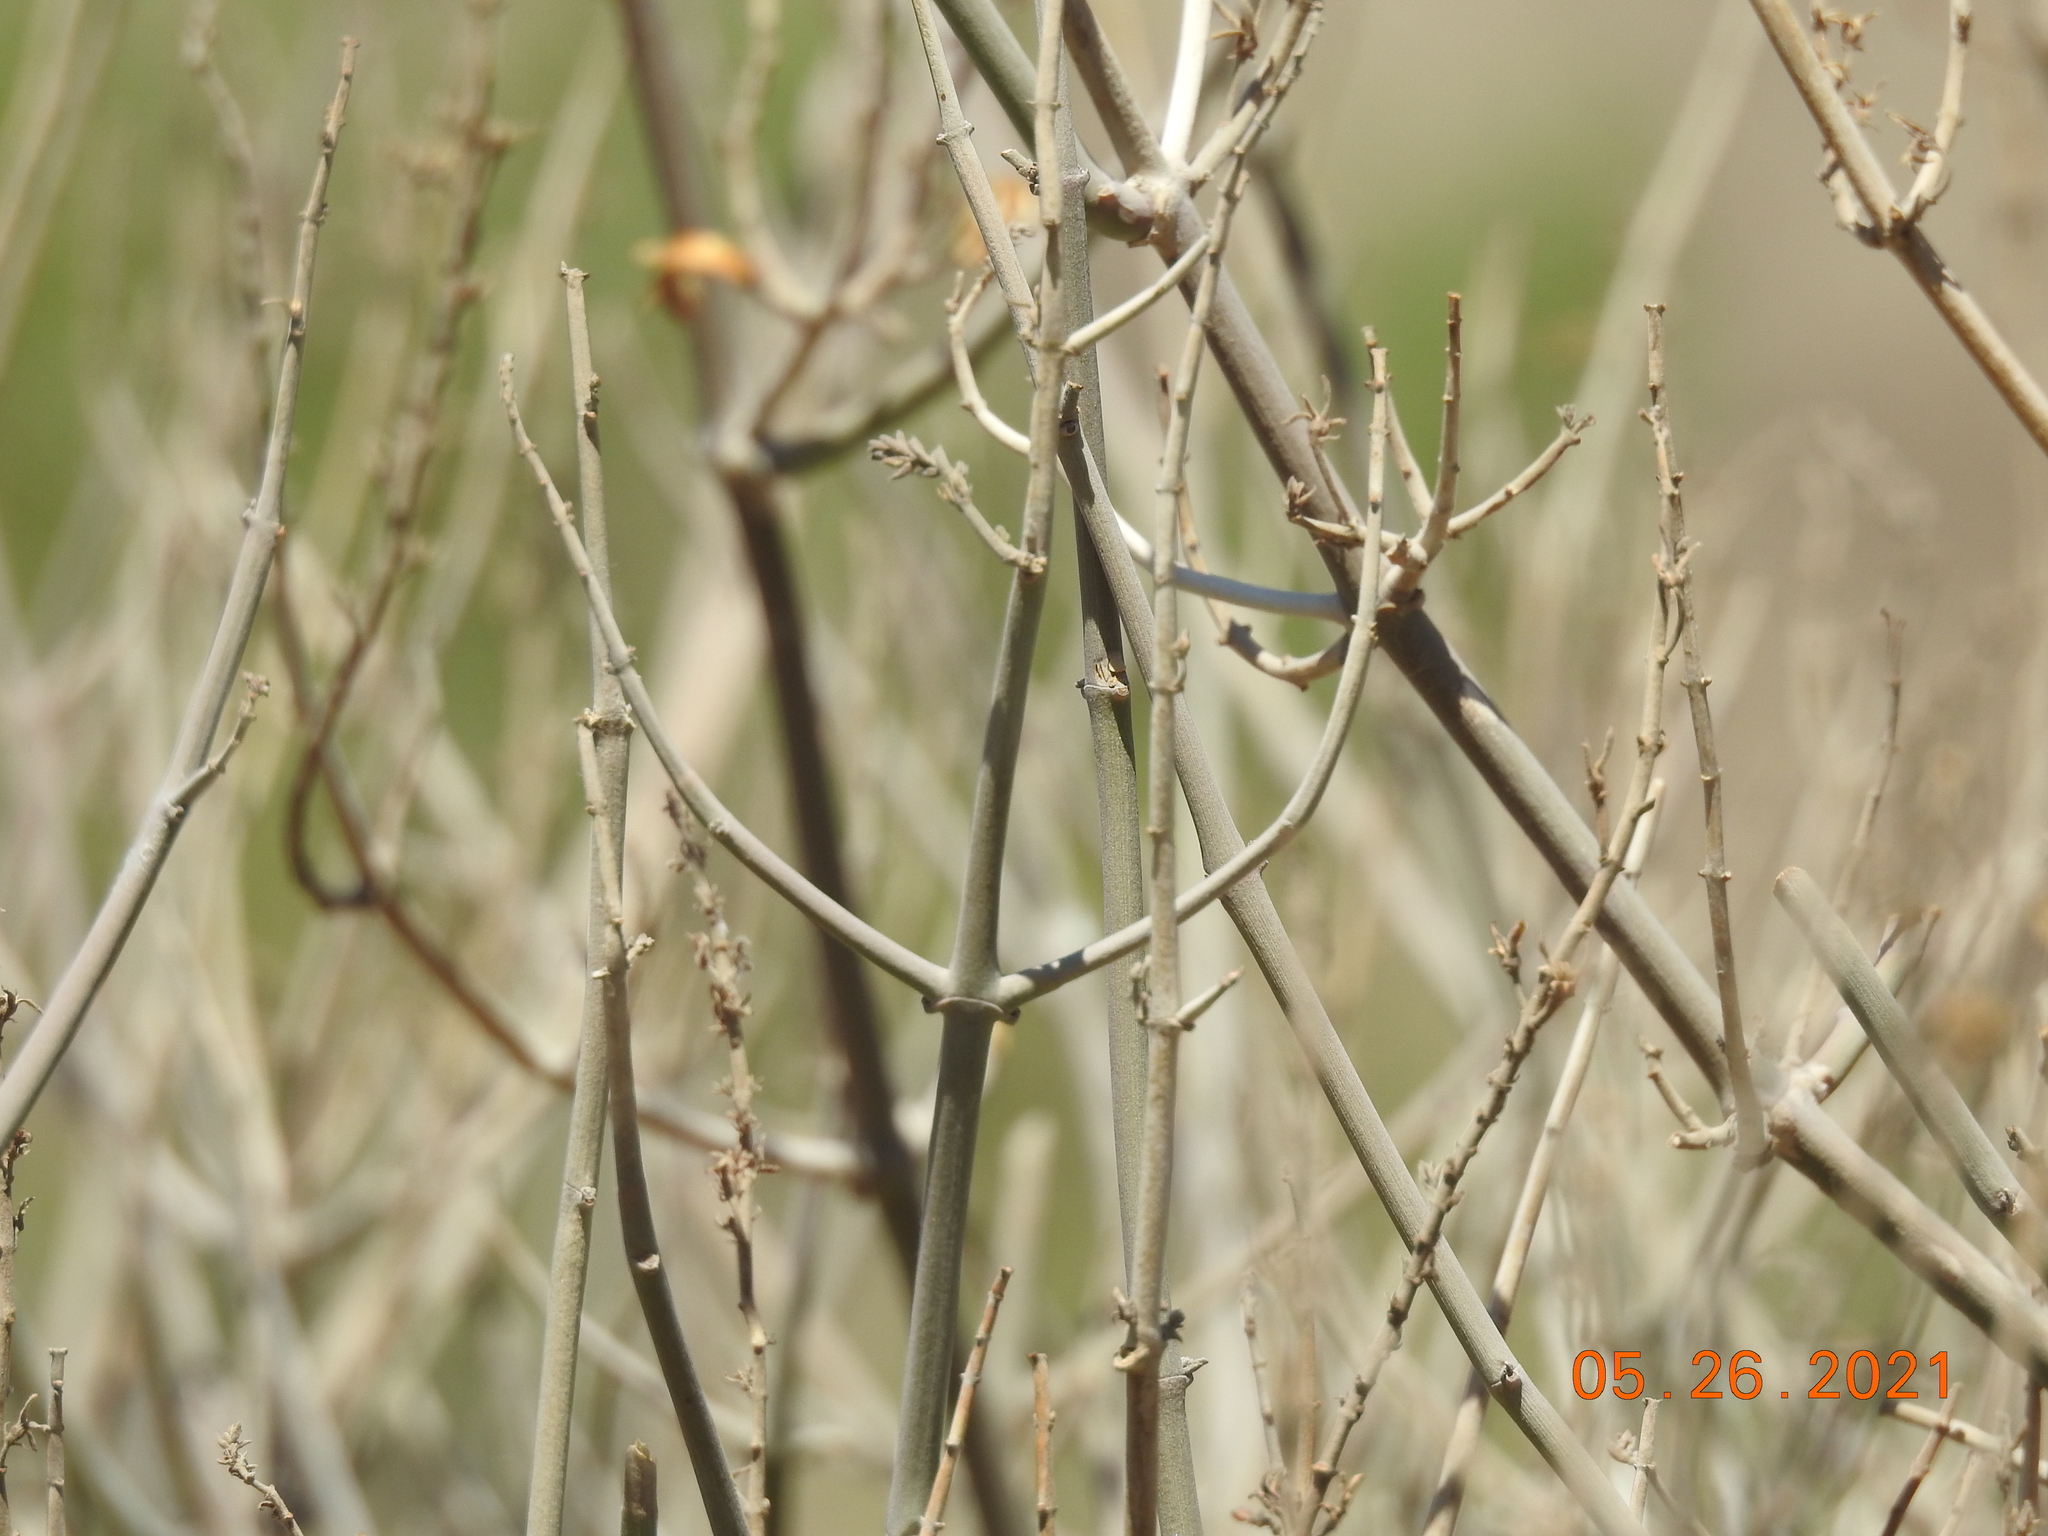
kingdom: Plantae
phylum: Tracheophyta
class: Magnoliopsida
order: Lamiales
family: Acanthaceae
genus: Justicia
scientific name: Justicia californica
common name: Chuparosa-honeysuckle
